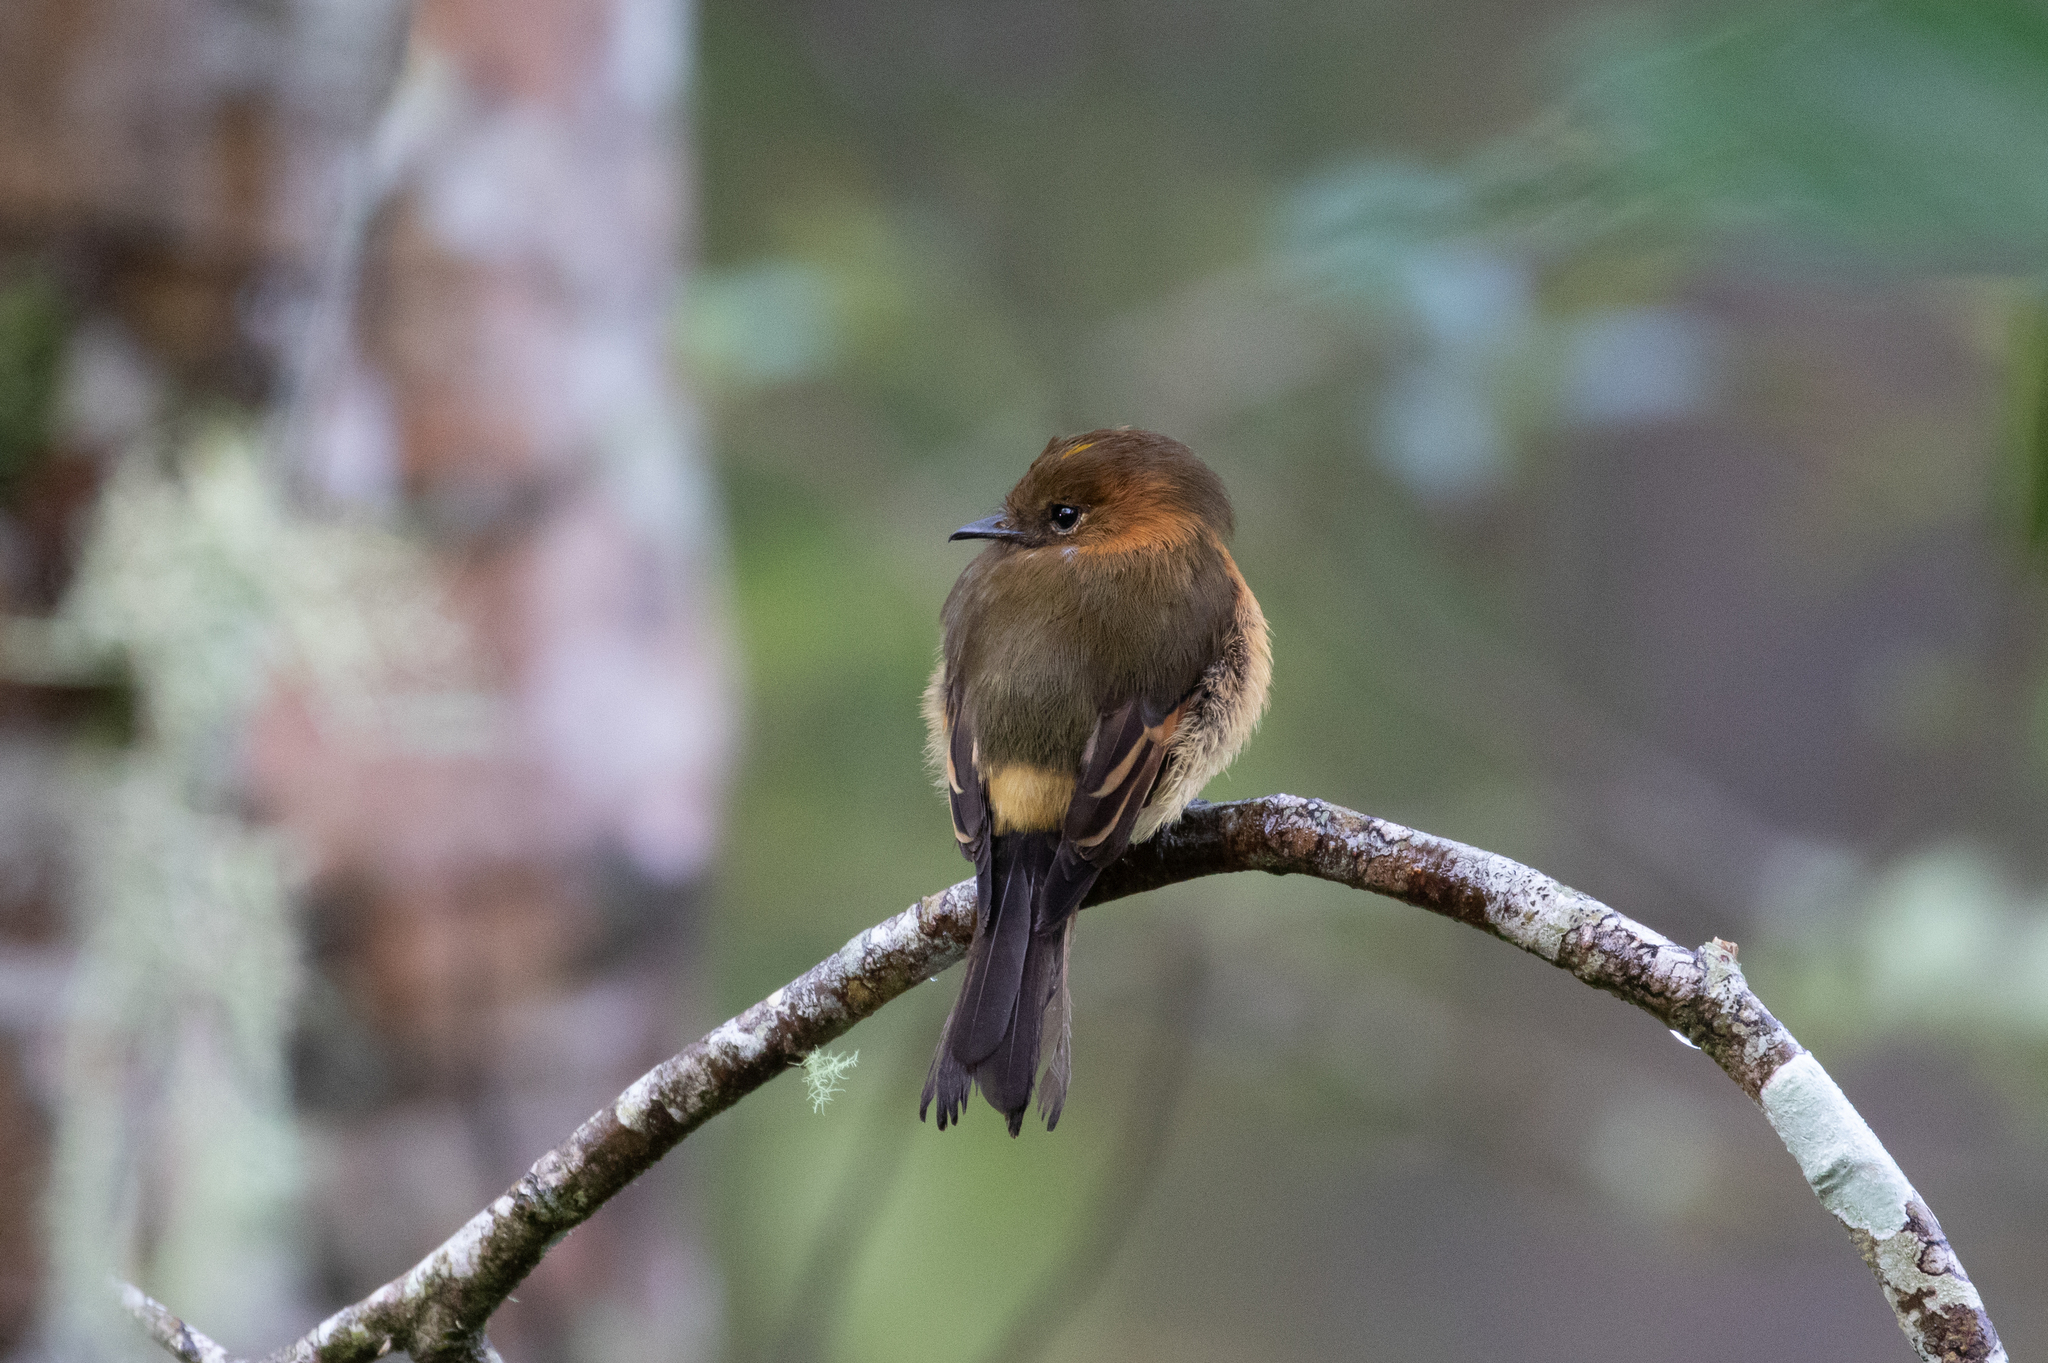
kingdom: Animalia
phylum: Chordata
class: Aves
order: Passeriformes
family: Tyrannidae
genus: Pyrrhomyias
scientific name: Pyrrhomyias cinnamomeus
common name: Cinnamon flycatcher
